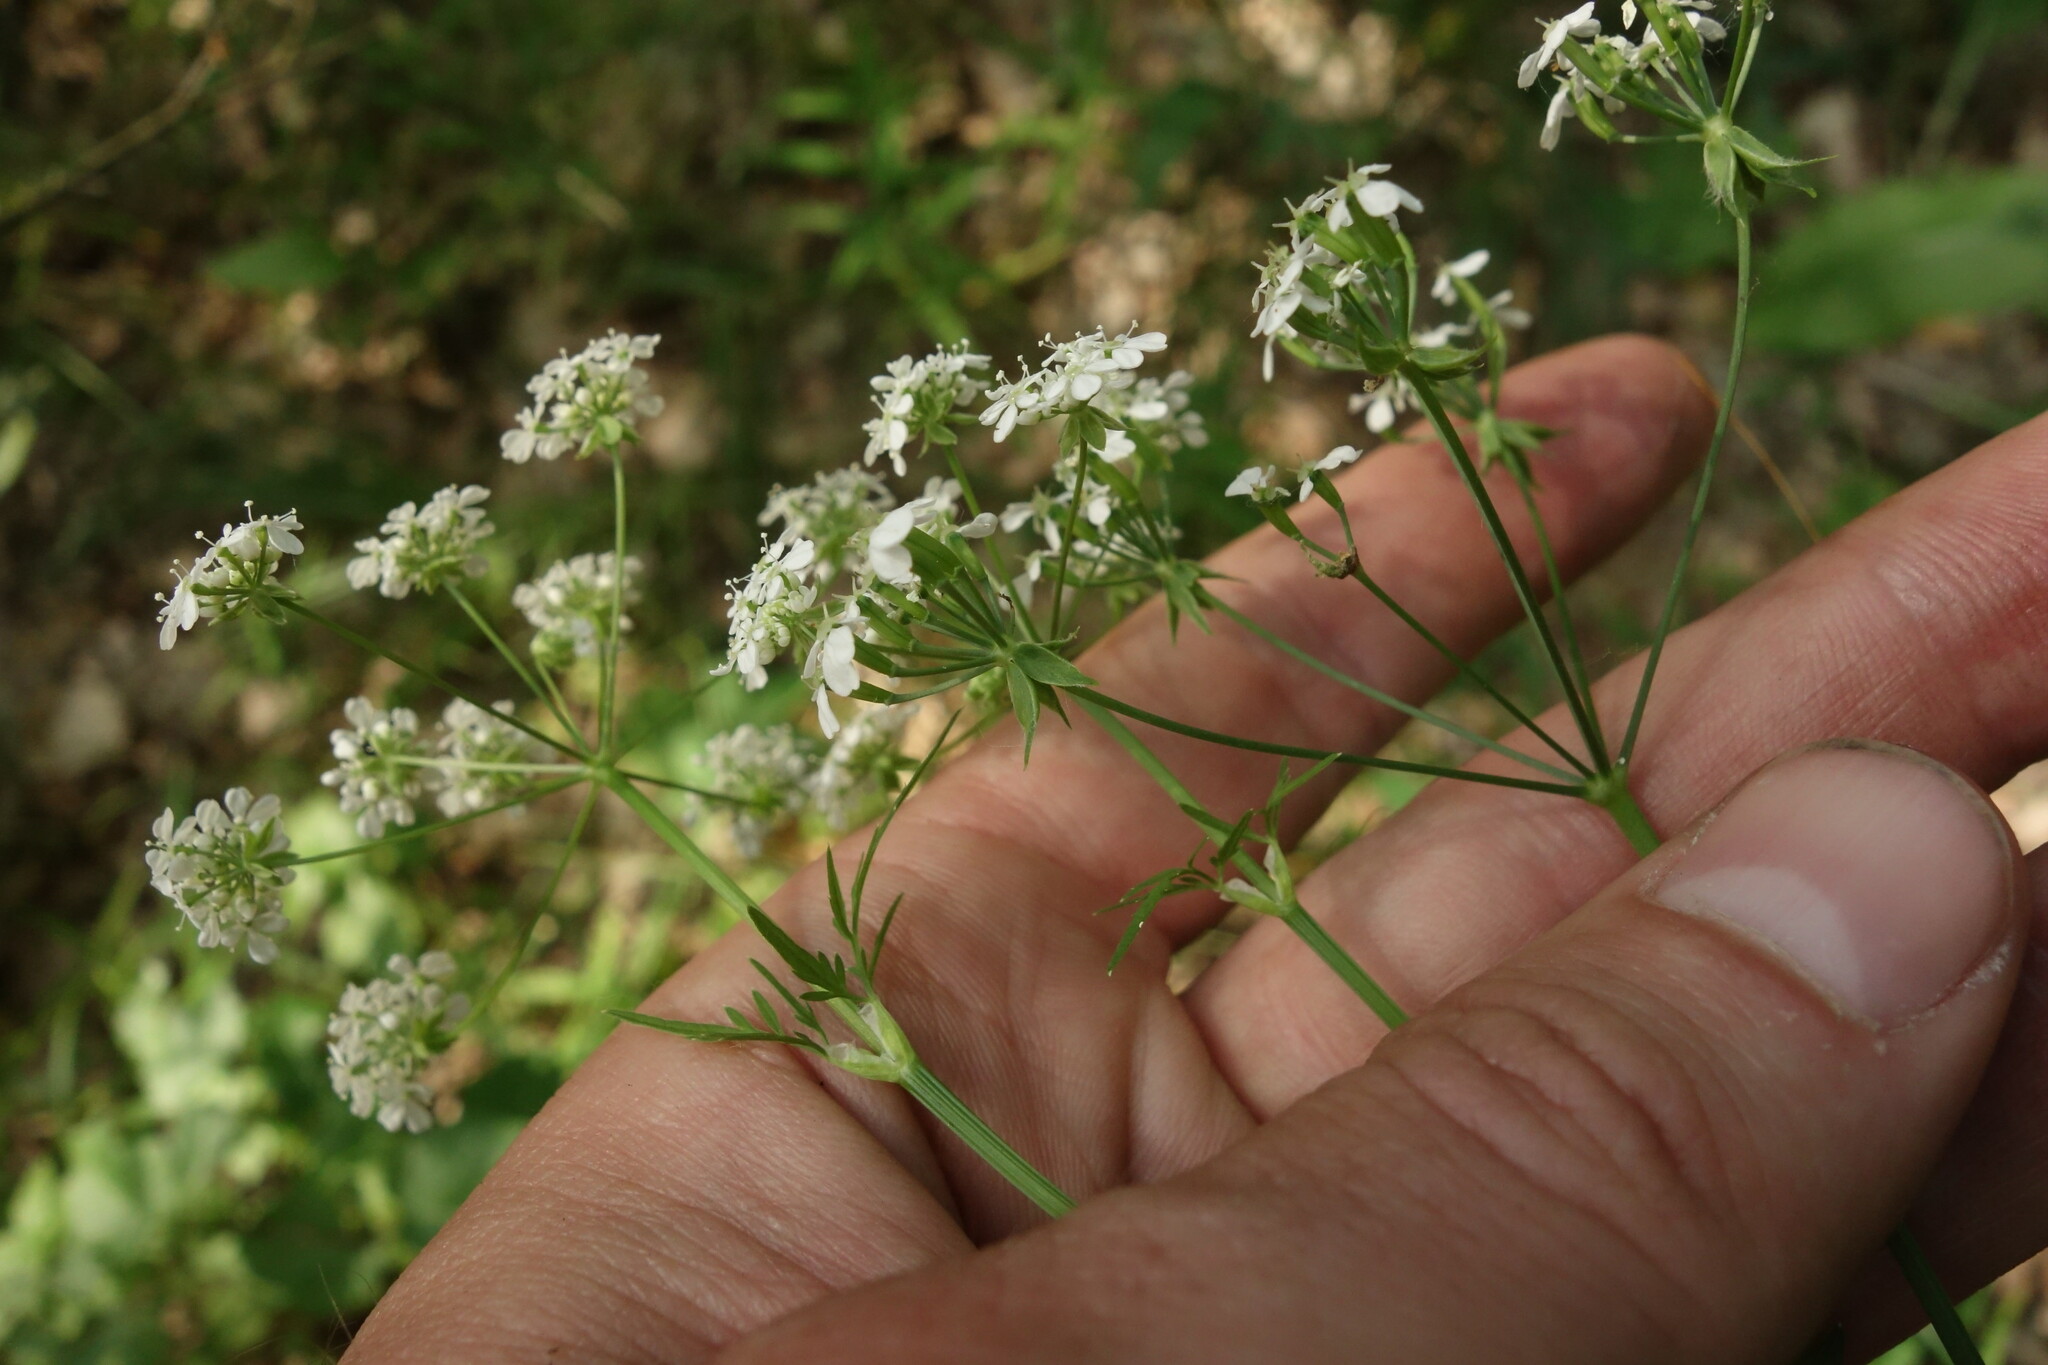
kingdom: Plantae
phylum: Tracheophyta
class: Magnoliopsida
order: Apiales
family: Apiaceae
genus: Anthriscus
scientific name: Anthriscus sylvestris
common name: Cow parsley
